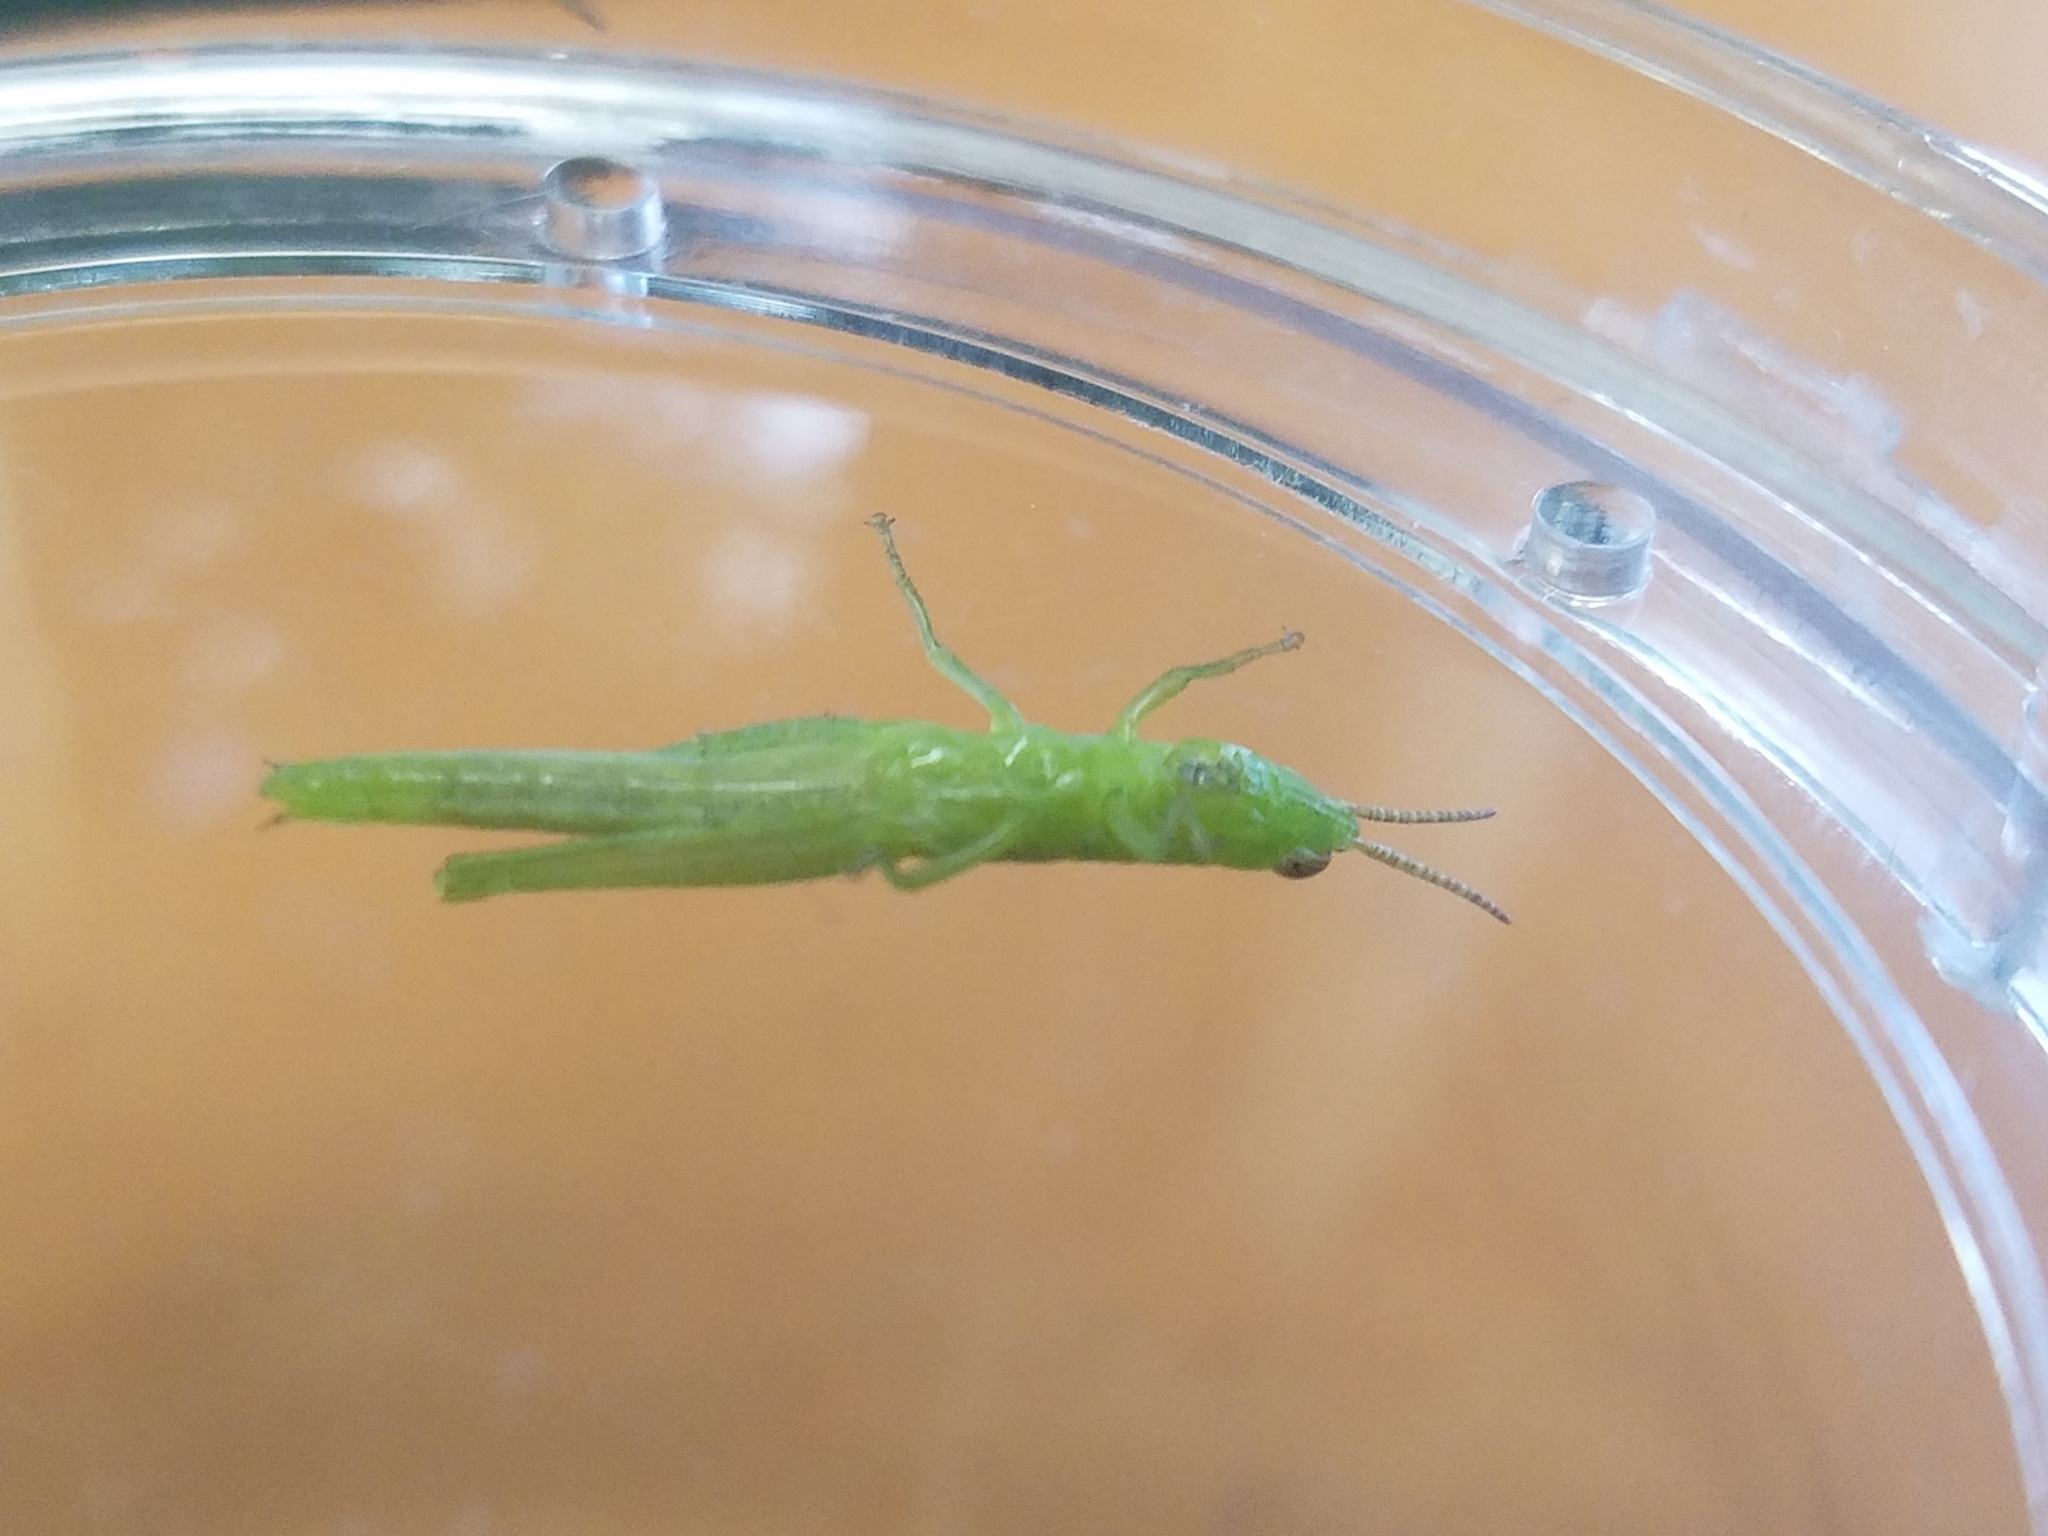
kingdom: Animalia
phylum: Arthropoda
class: Insecta
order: Orthoptera
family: Acrididae
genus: Stenacris
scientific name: Stenacris vitreipennis
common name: Glassy-winged toothpick grasshopper
